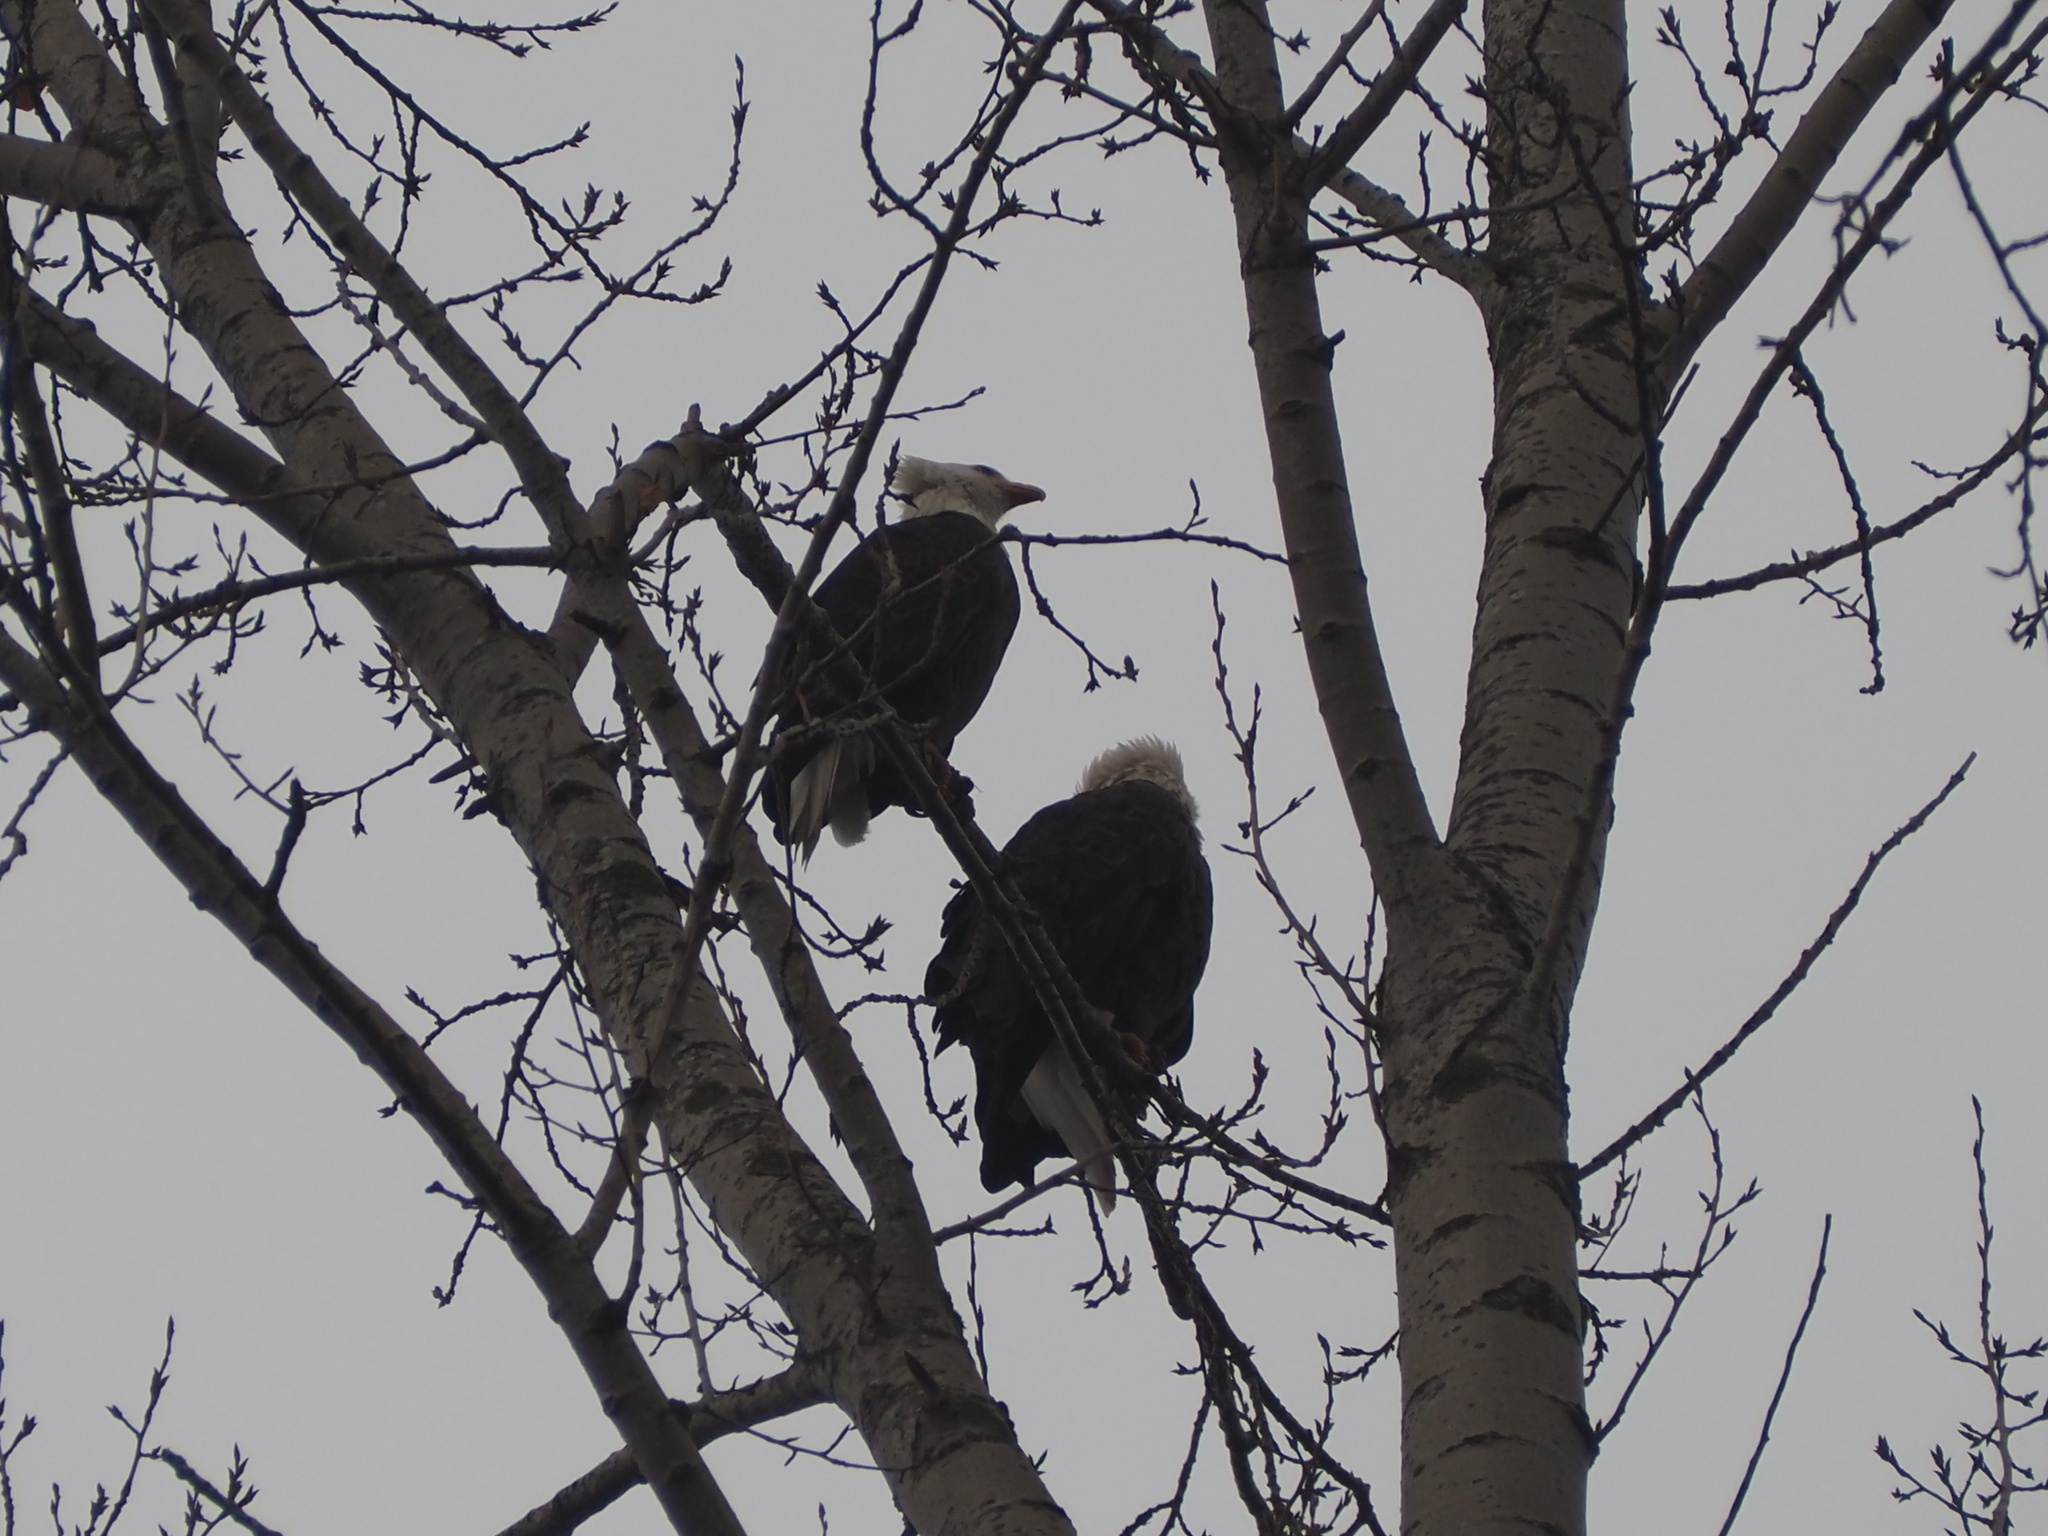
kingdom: Animalia
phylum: Chordata
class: Aves
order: Accipitriformes
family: Accipitridae
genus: Haliaeetus
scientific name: Haliaeetus leucocephalus
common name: Bald eagle
